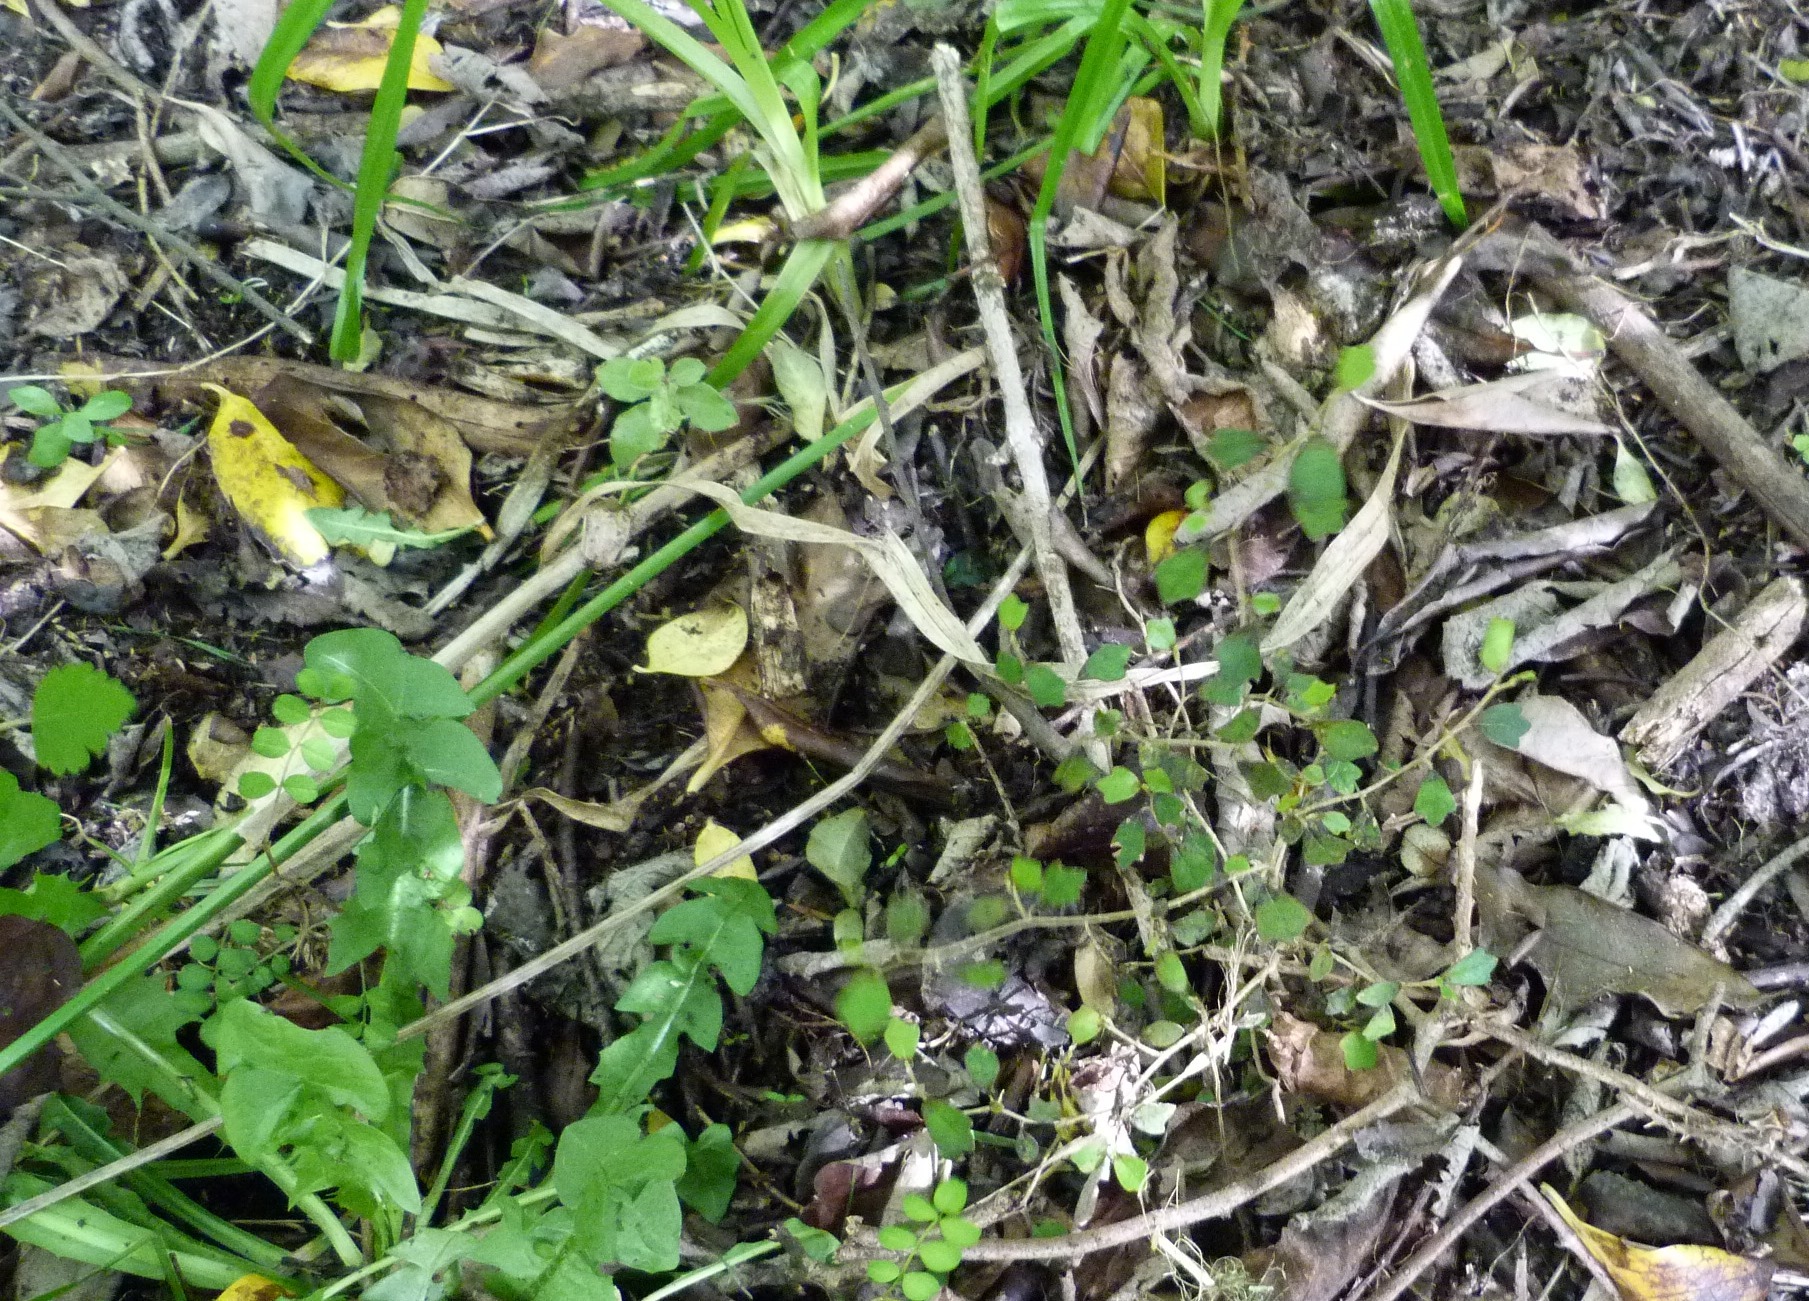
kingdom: Plantae
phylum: Tracheophyta
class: Magnoliopsida
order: Apiales
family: Pennantiaceae
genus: Pennantia
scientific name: Pennantia corymbosa
